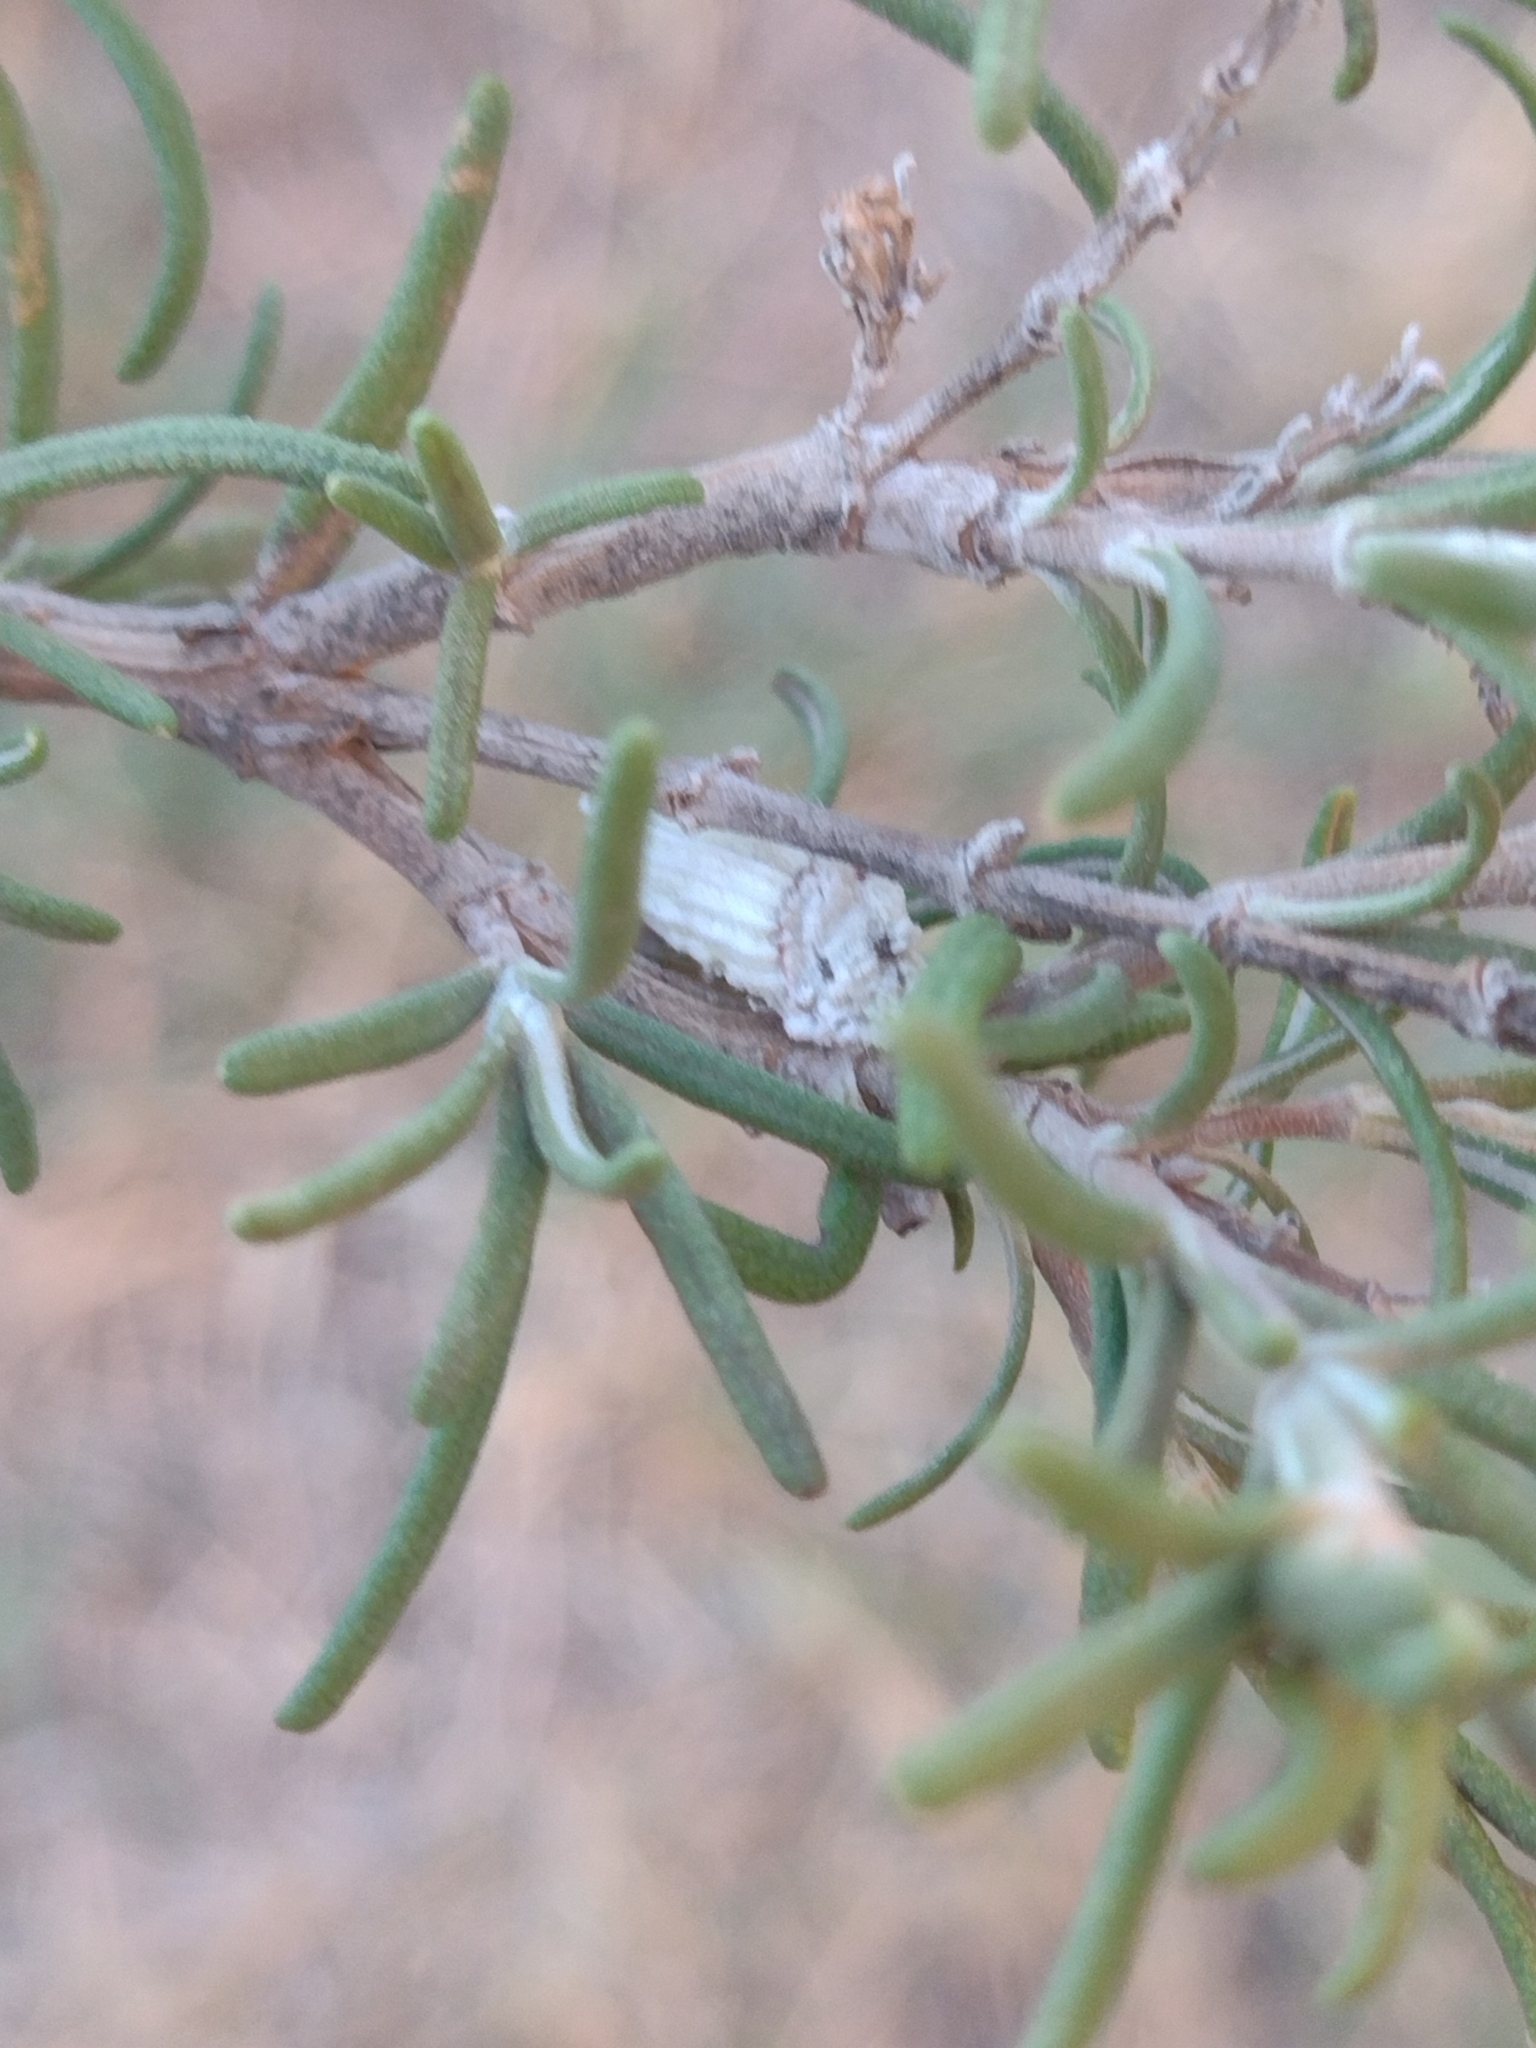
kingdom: Animalia
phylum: Arthropoda
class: Insecta
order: Hemiptera
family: Margarodidae
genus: Icerya
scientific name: Icerya purchasi
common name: Cottony cushion scale
